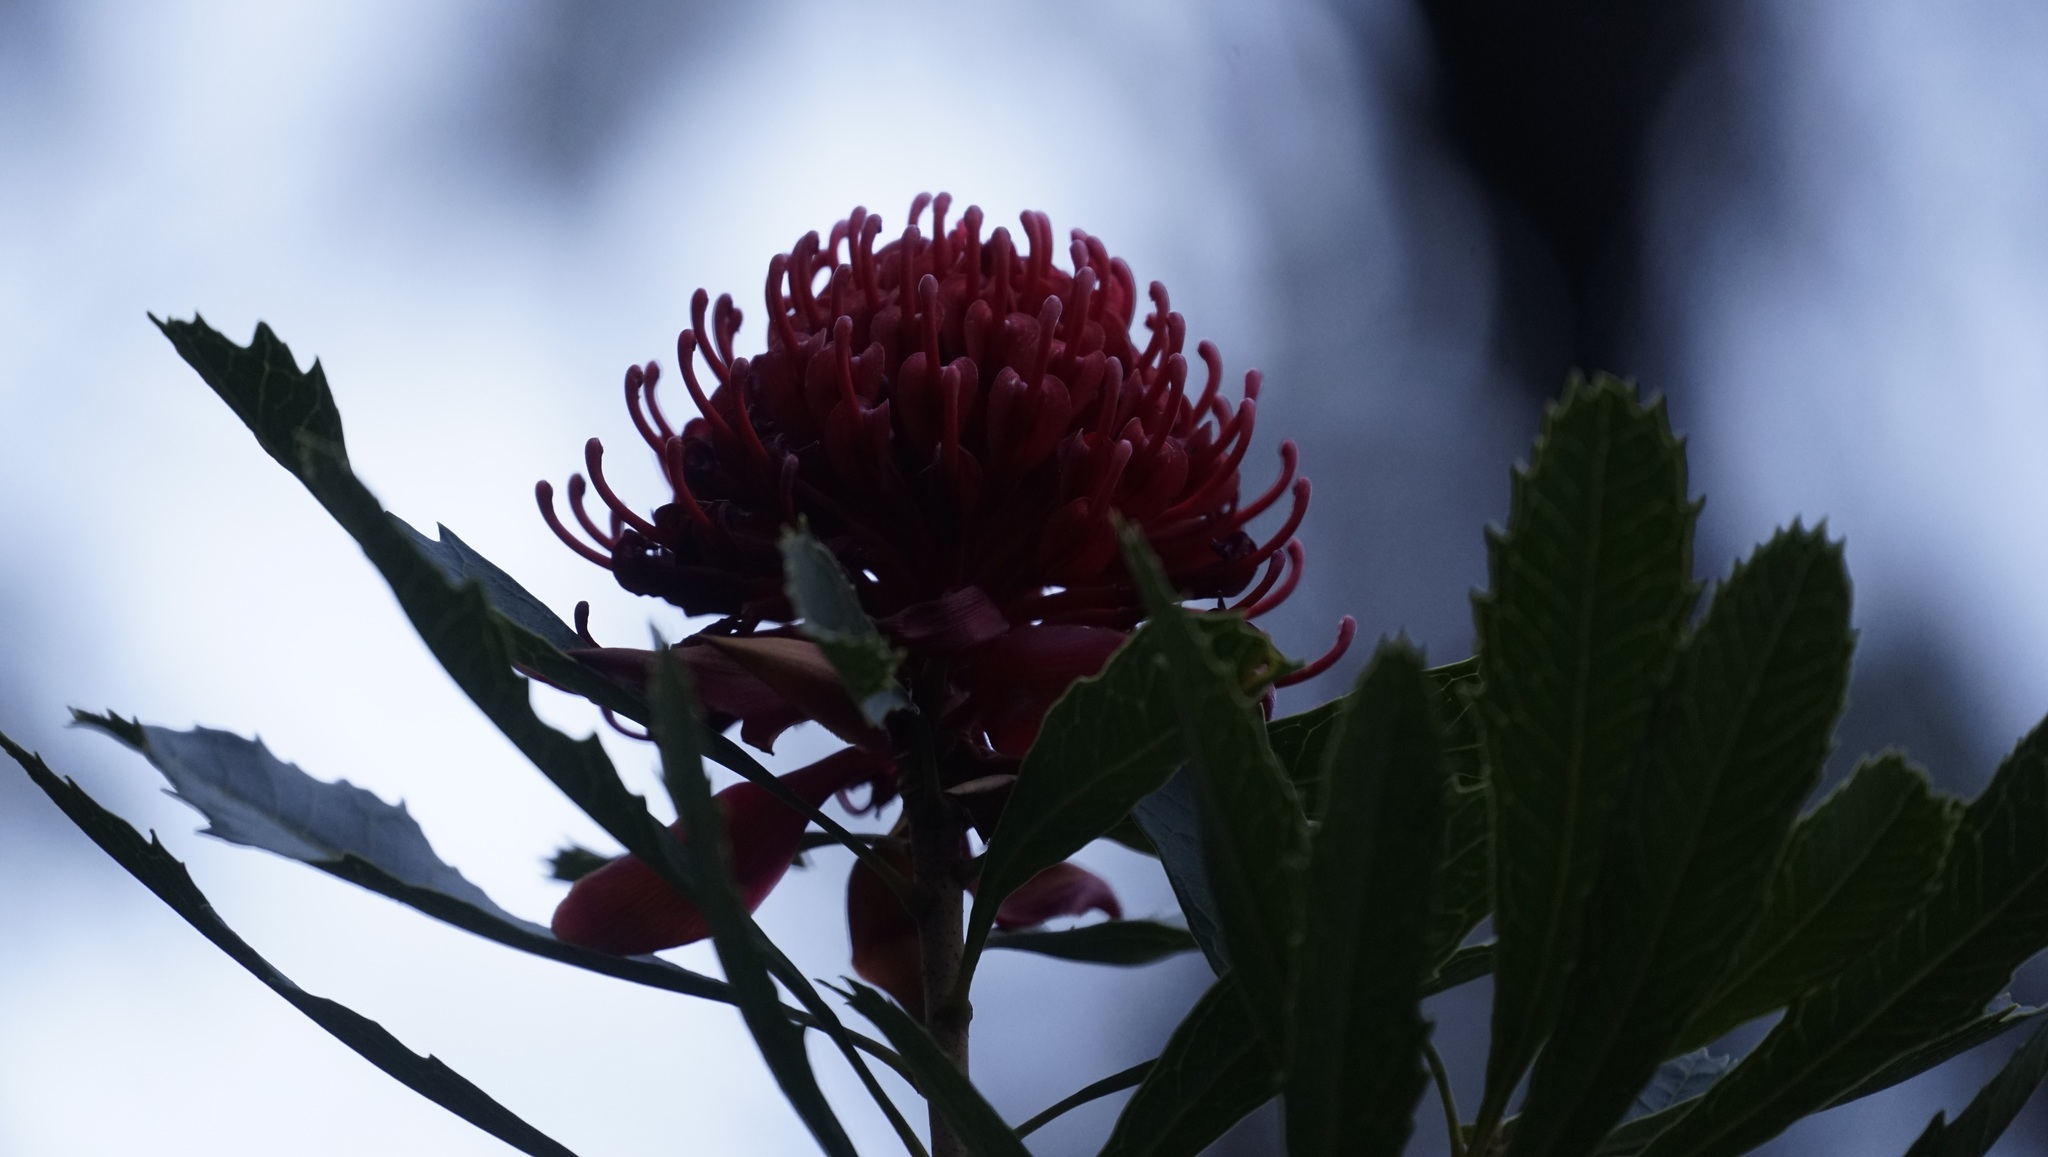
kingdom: Plantae
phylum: Tracheophyta
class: Magnoliopsida
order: Proteales
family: Proteaceae
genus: Telopea
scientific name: Telopea speciosissima
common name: New south wales waratah
